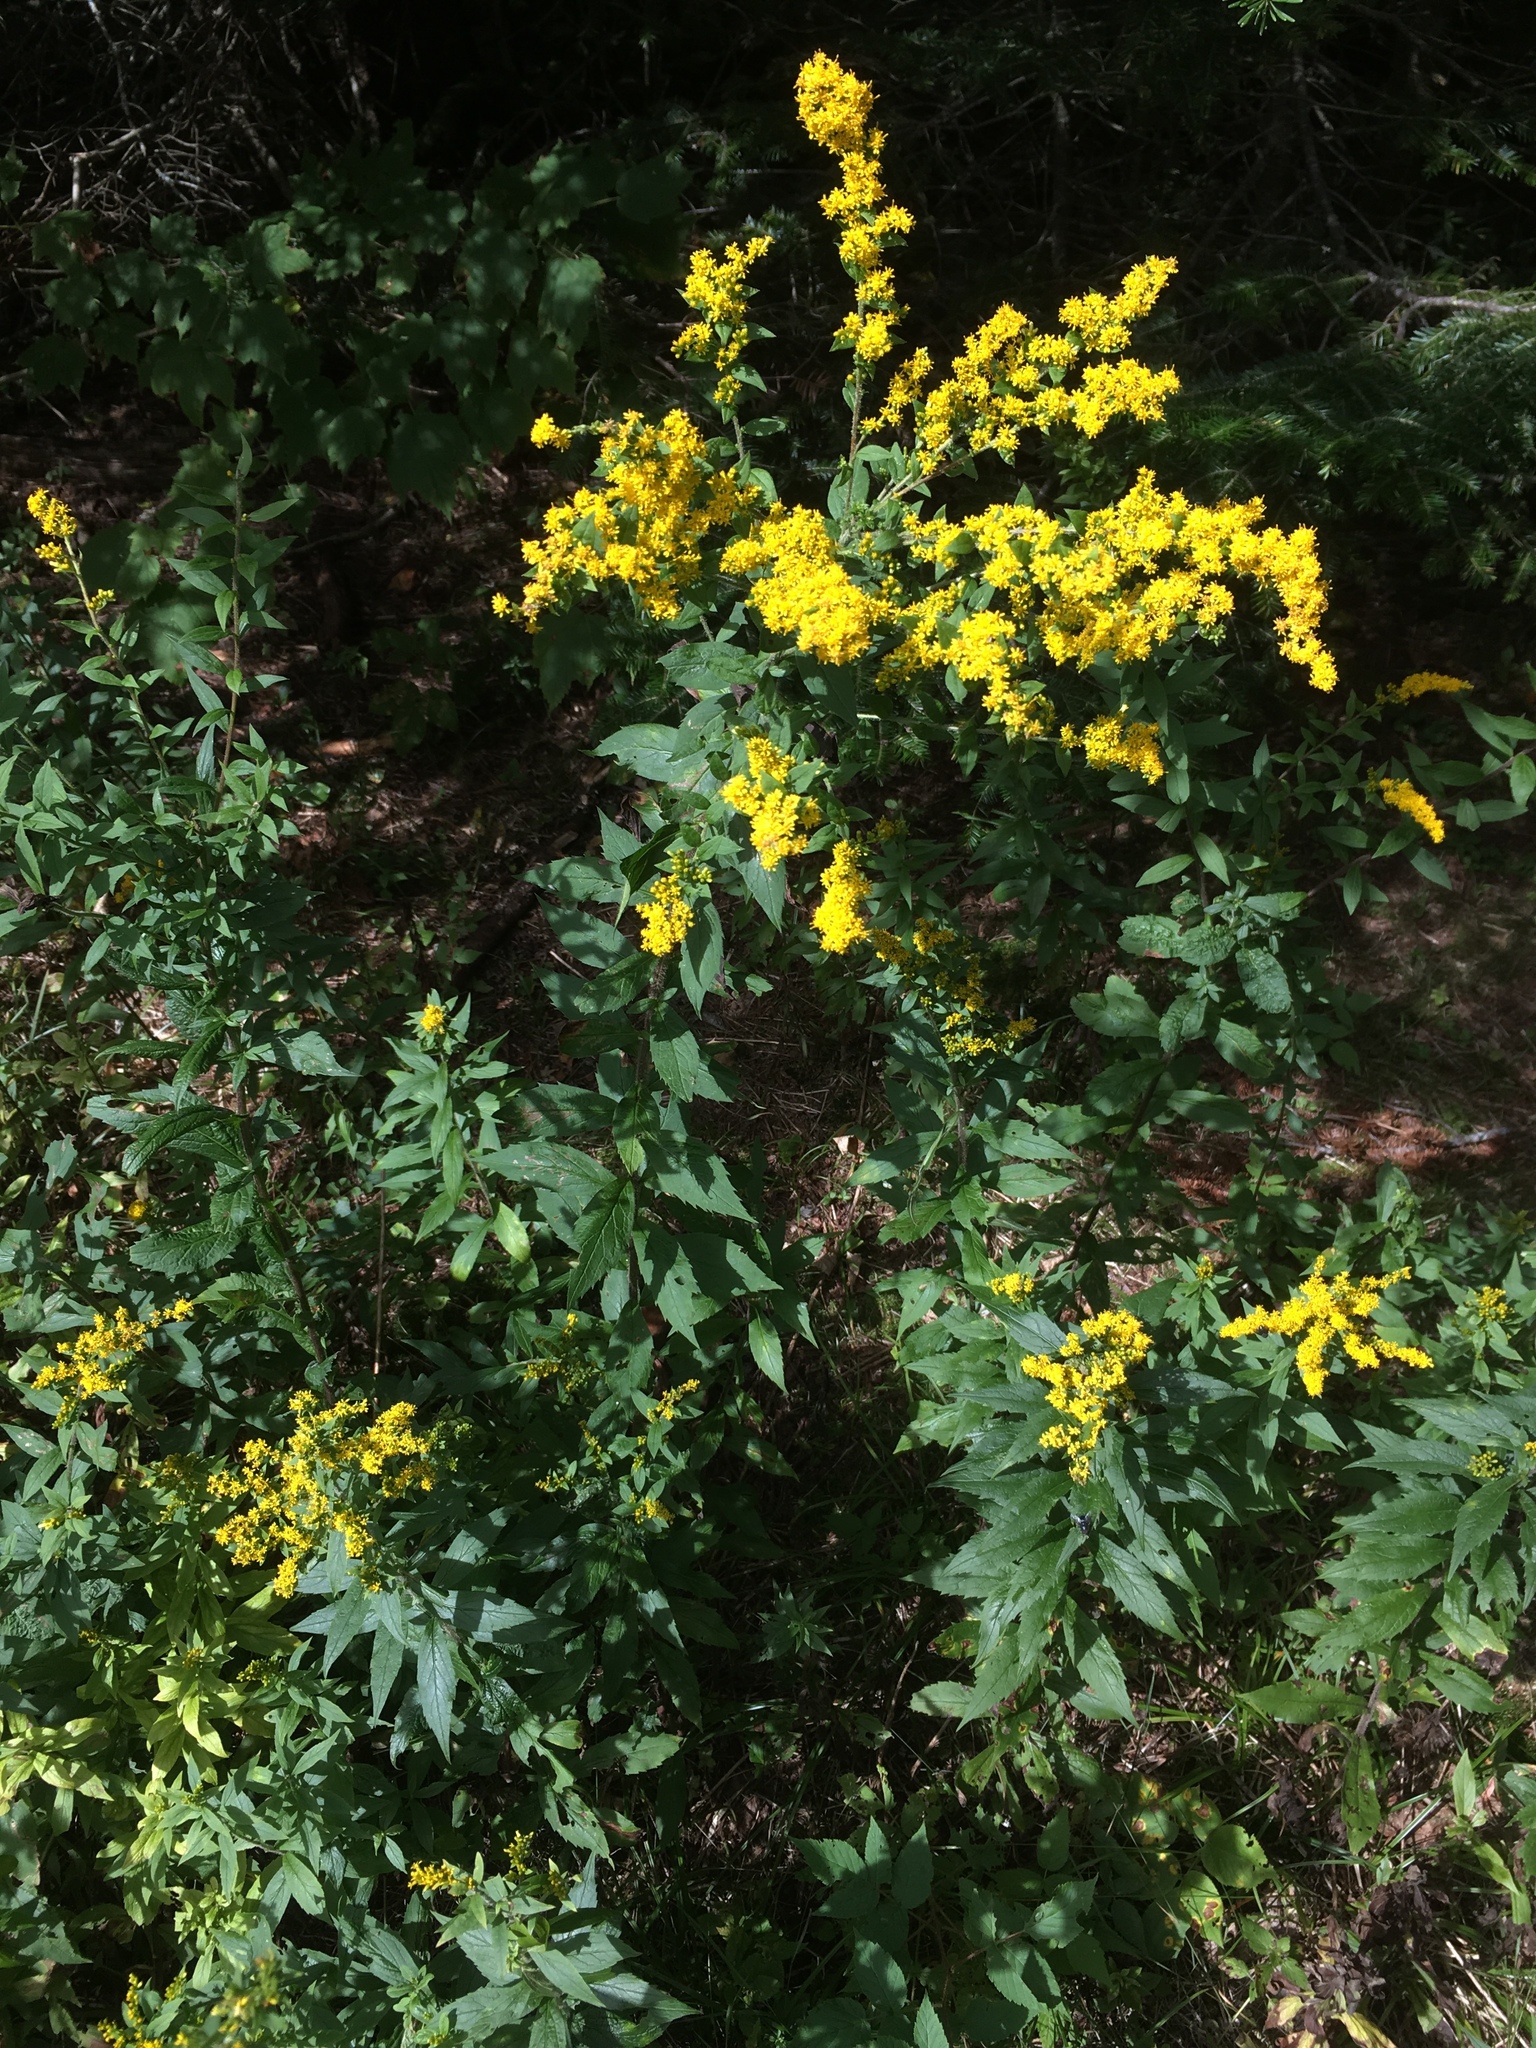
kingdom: Plantae
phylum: Tracheophyta
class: Magnoliopsida
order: Asterales
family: Asteraceae
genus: Solidago
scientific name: Solidago rugosa
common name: Rough-stemmed goldenrod
